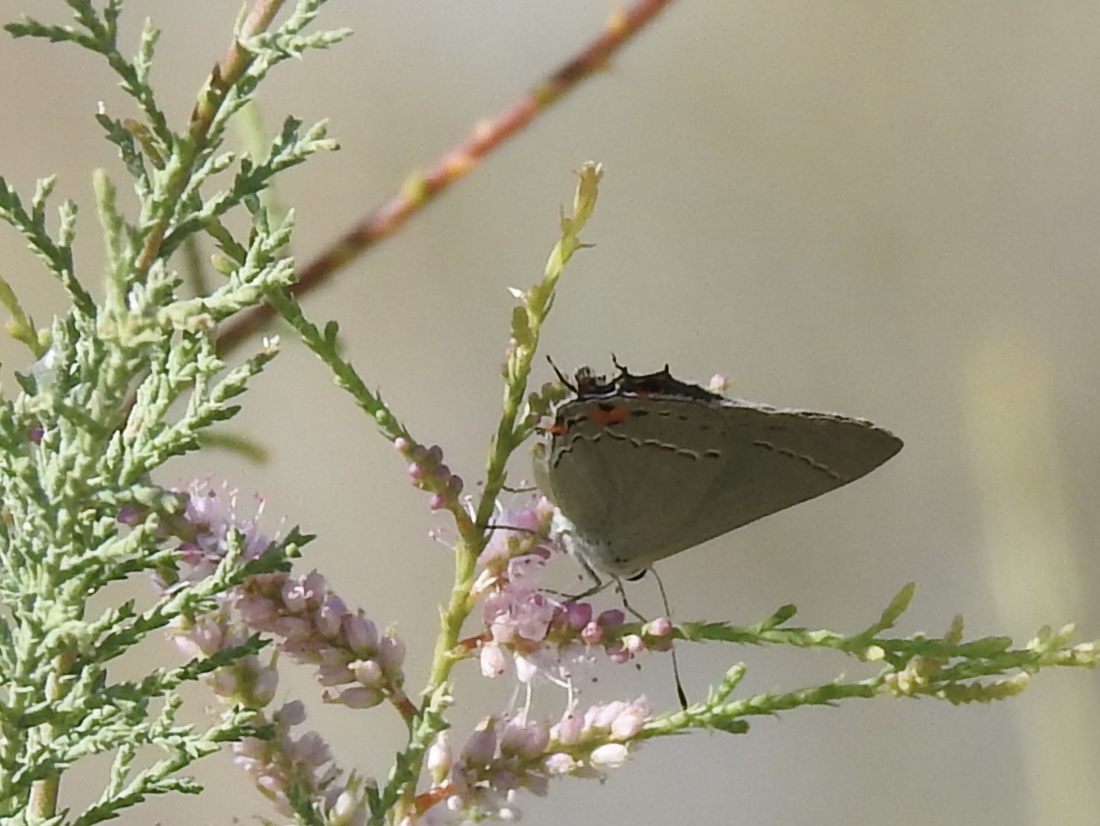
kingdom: Animalia
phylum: Arthropoda
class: Insecta
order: Lepidoptera
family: Lycaenidae
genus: Strymon
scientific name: Strymon melinus
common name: Gray hairstreak
